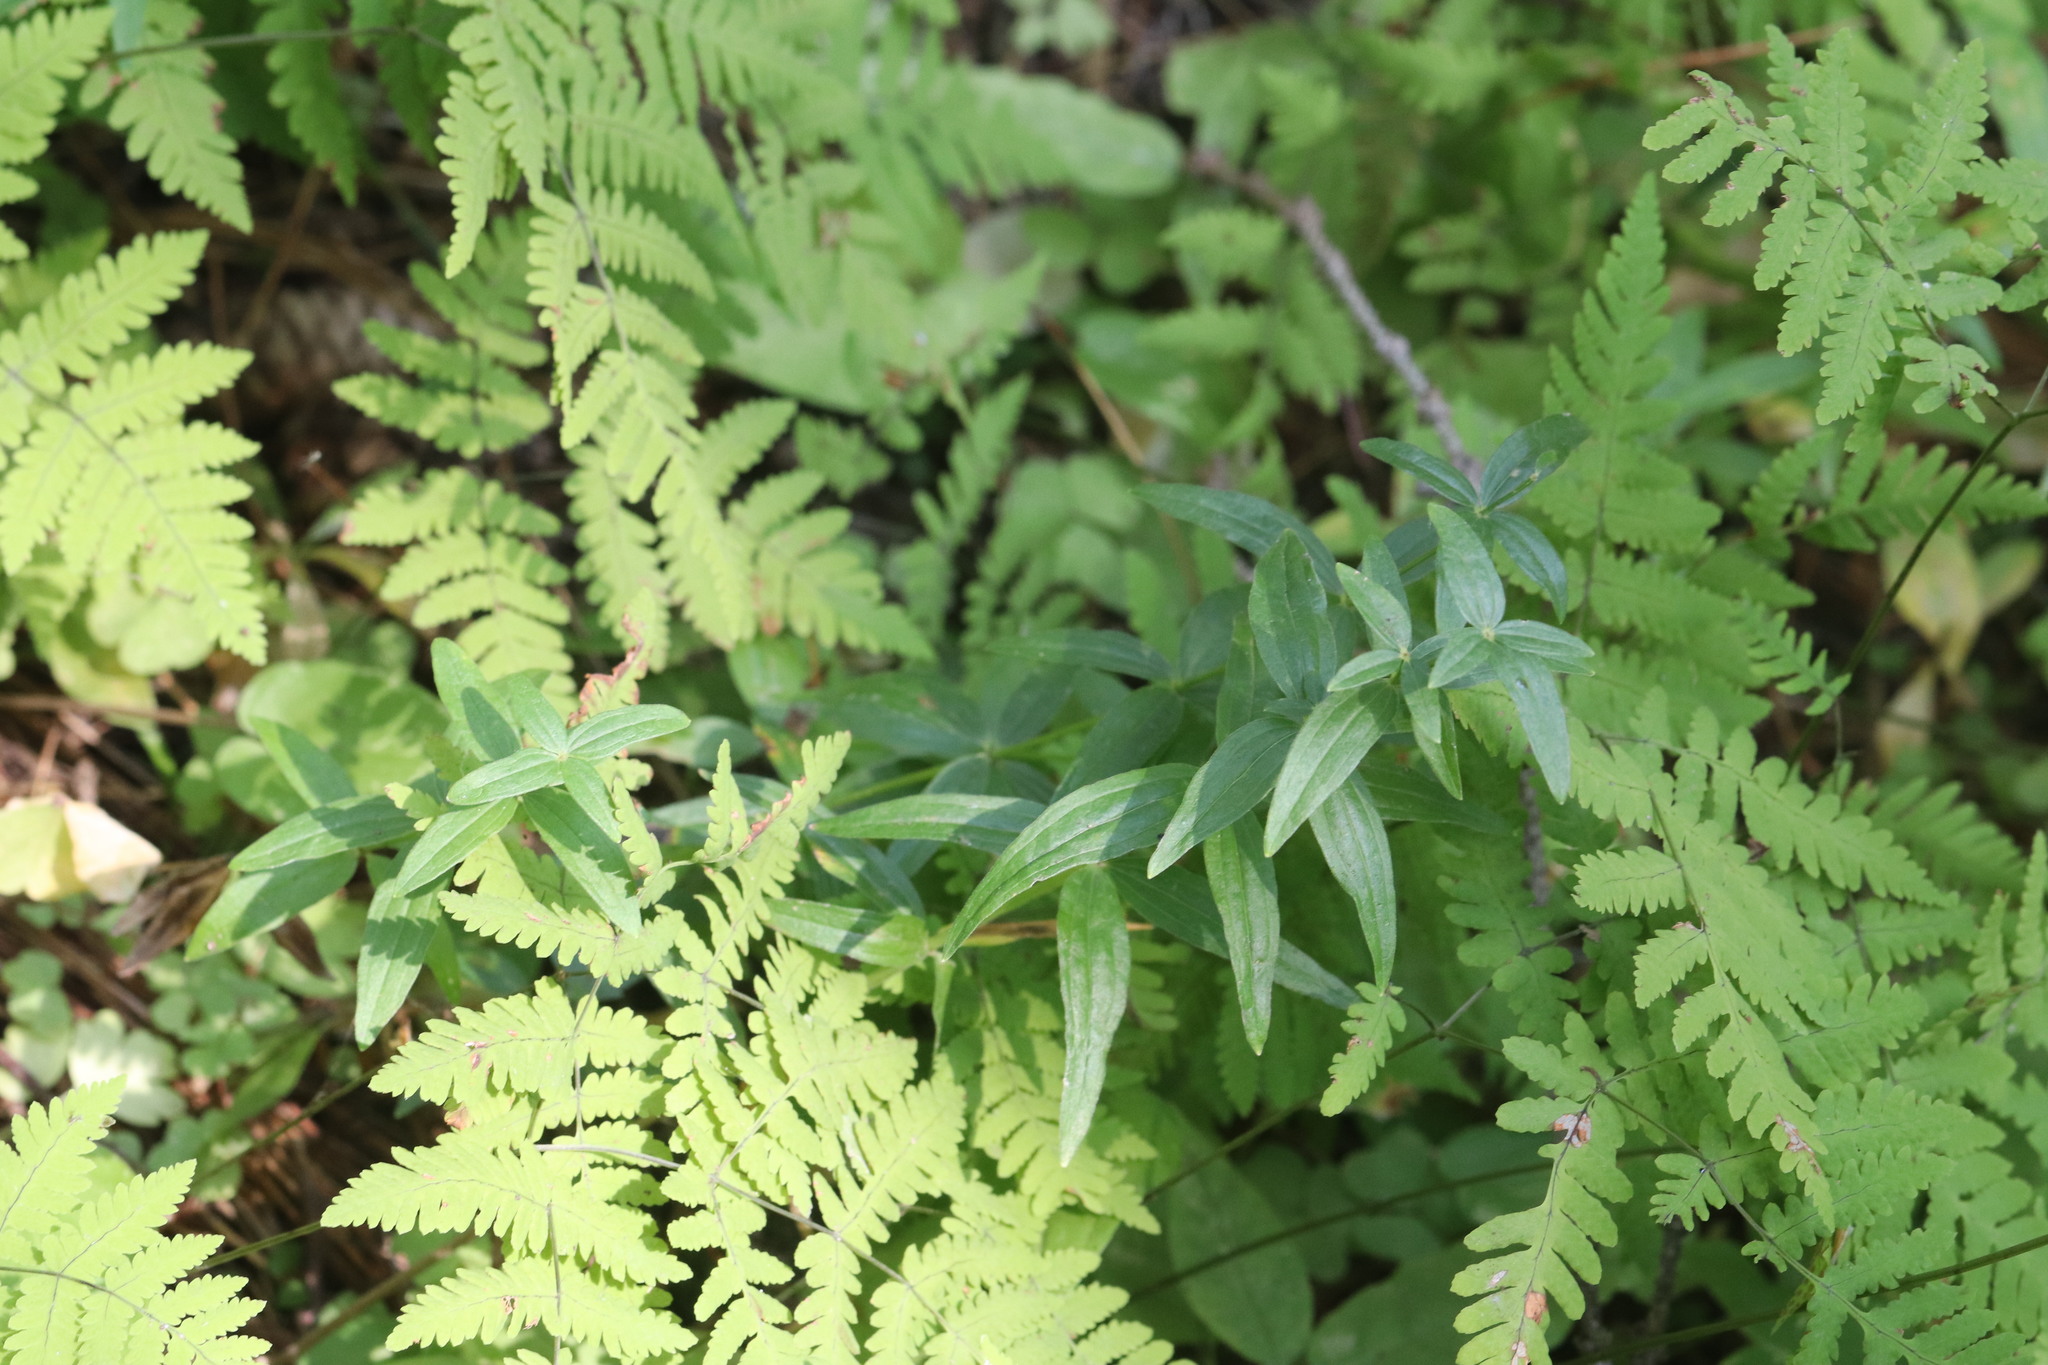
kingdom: Plantae
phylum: Tracheophyta
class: Magnoliopsida
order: Gentianales
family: Rubiaceae
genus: Galium
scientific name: Galium boreale
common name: Northern bedstraw
